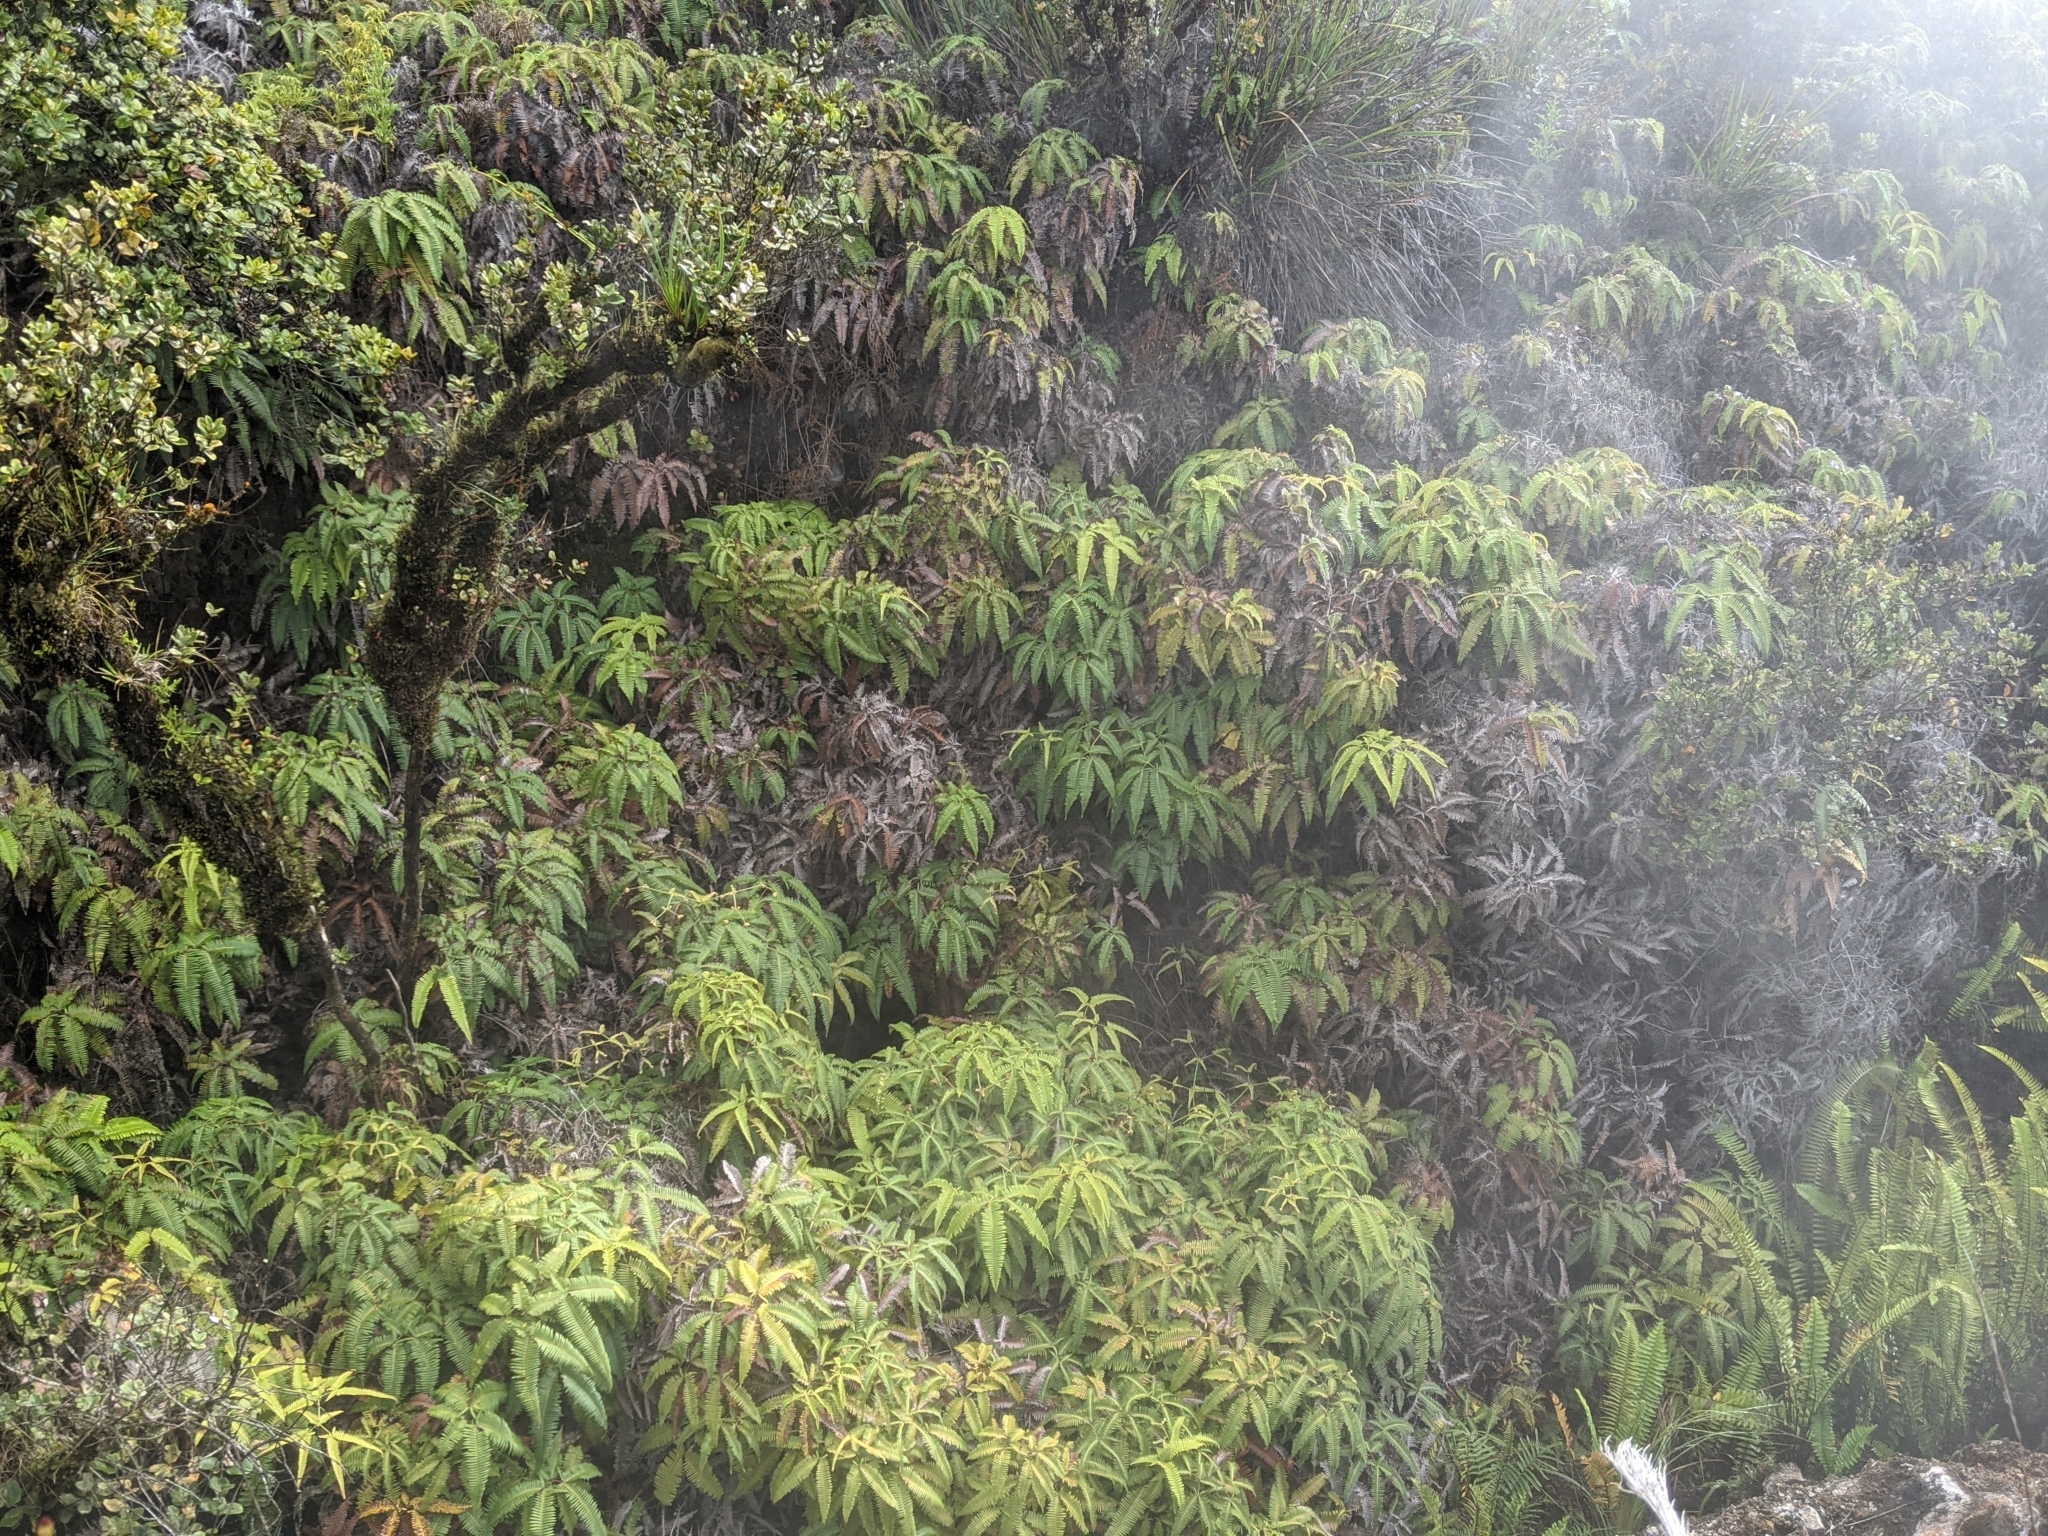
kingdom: Plantae
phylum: Tracheophyta
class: Polypodiopsida
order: Gleicheniales
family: Gleicheniaceae
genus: Dicranopteris
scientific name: Dicranopteris linearis
